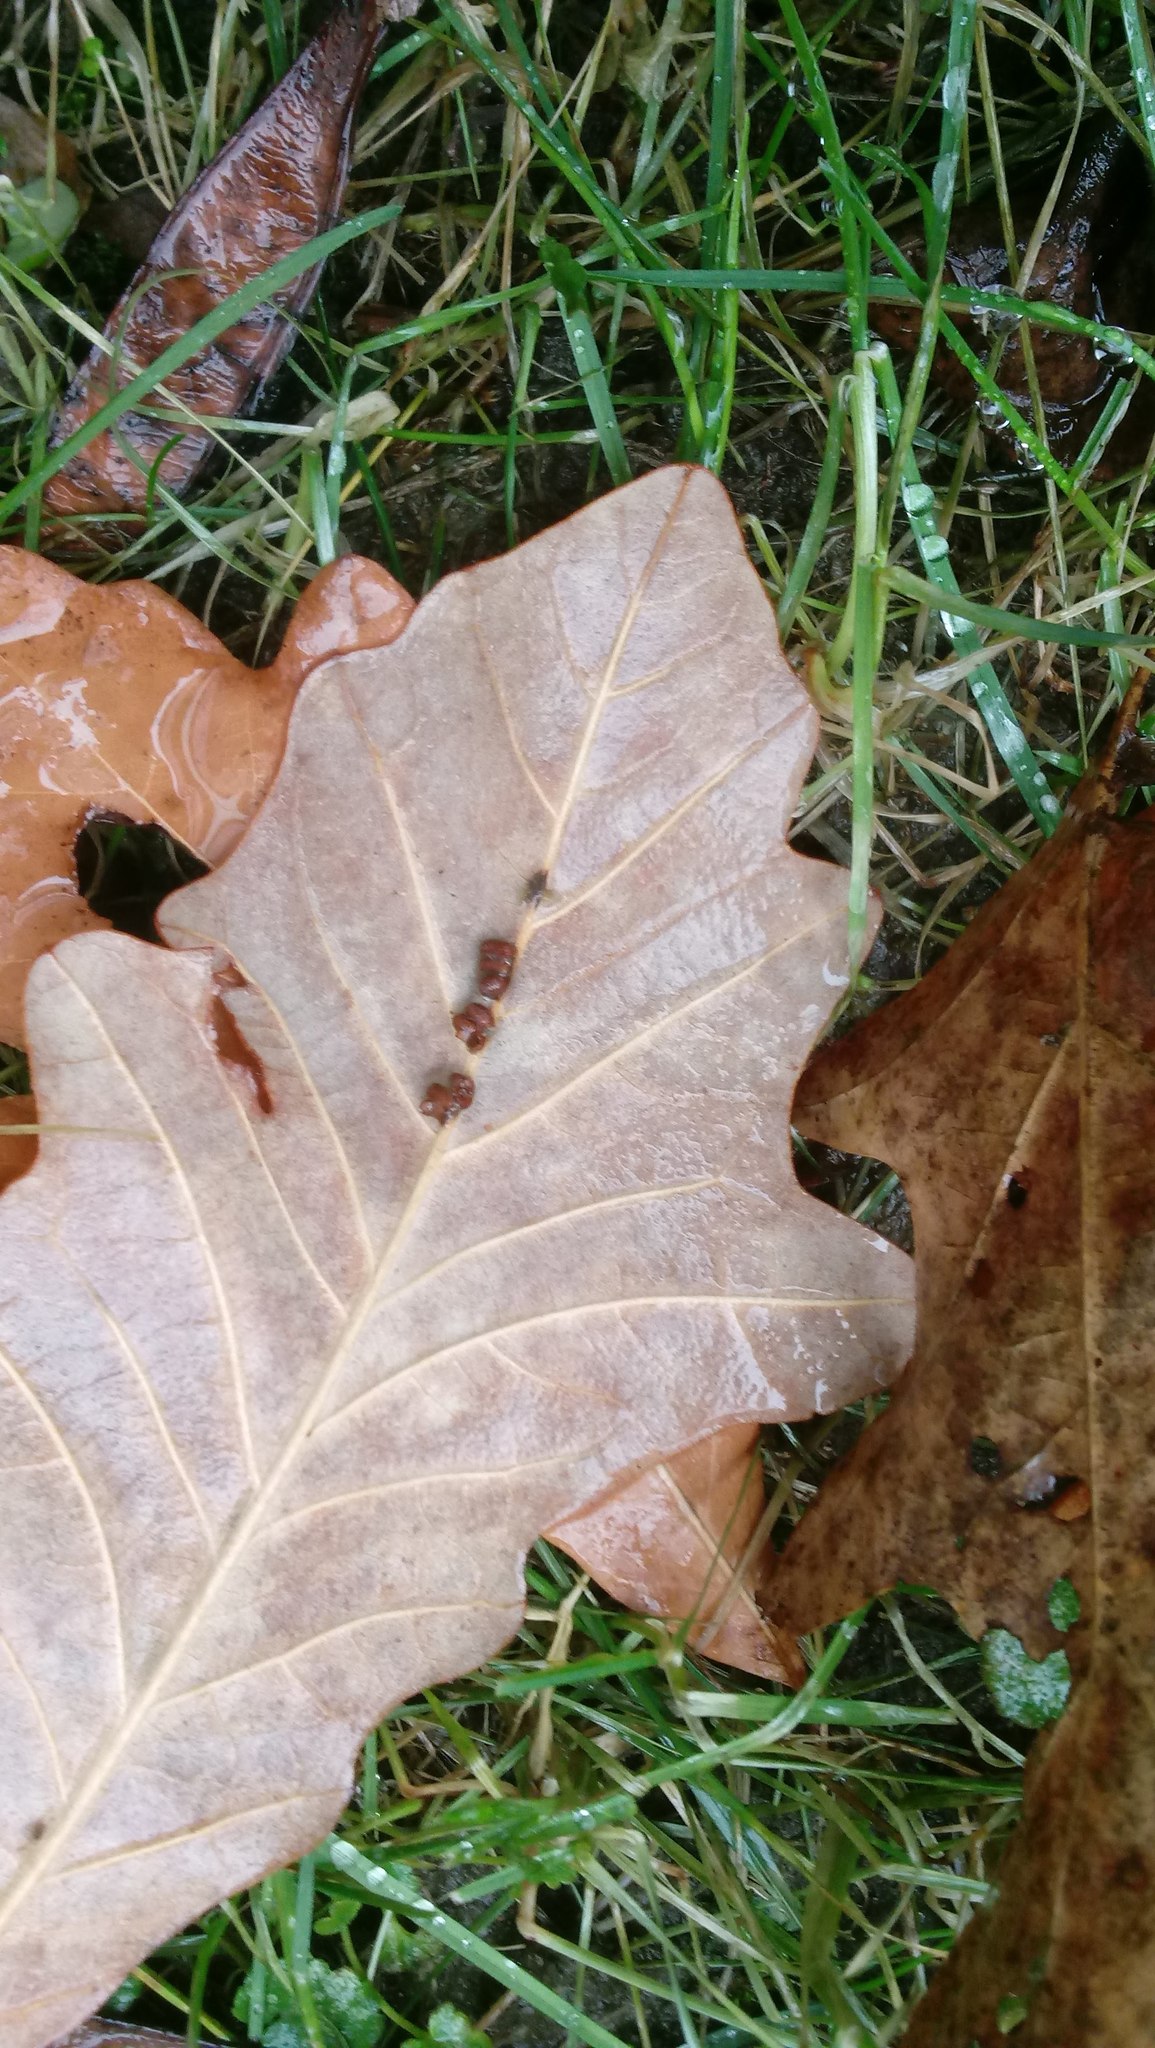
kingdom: Animalia
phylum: Arthropoda
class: Insecta
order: Hymenoptera
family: Cynipidae
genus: Andricus
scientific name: Andricus Druon ignotum
